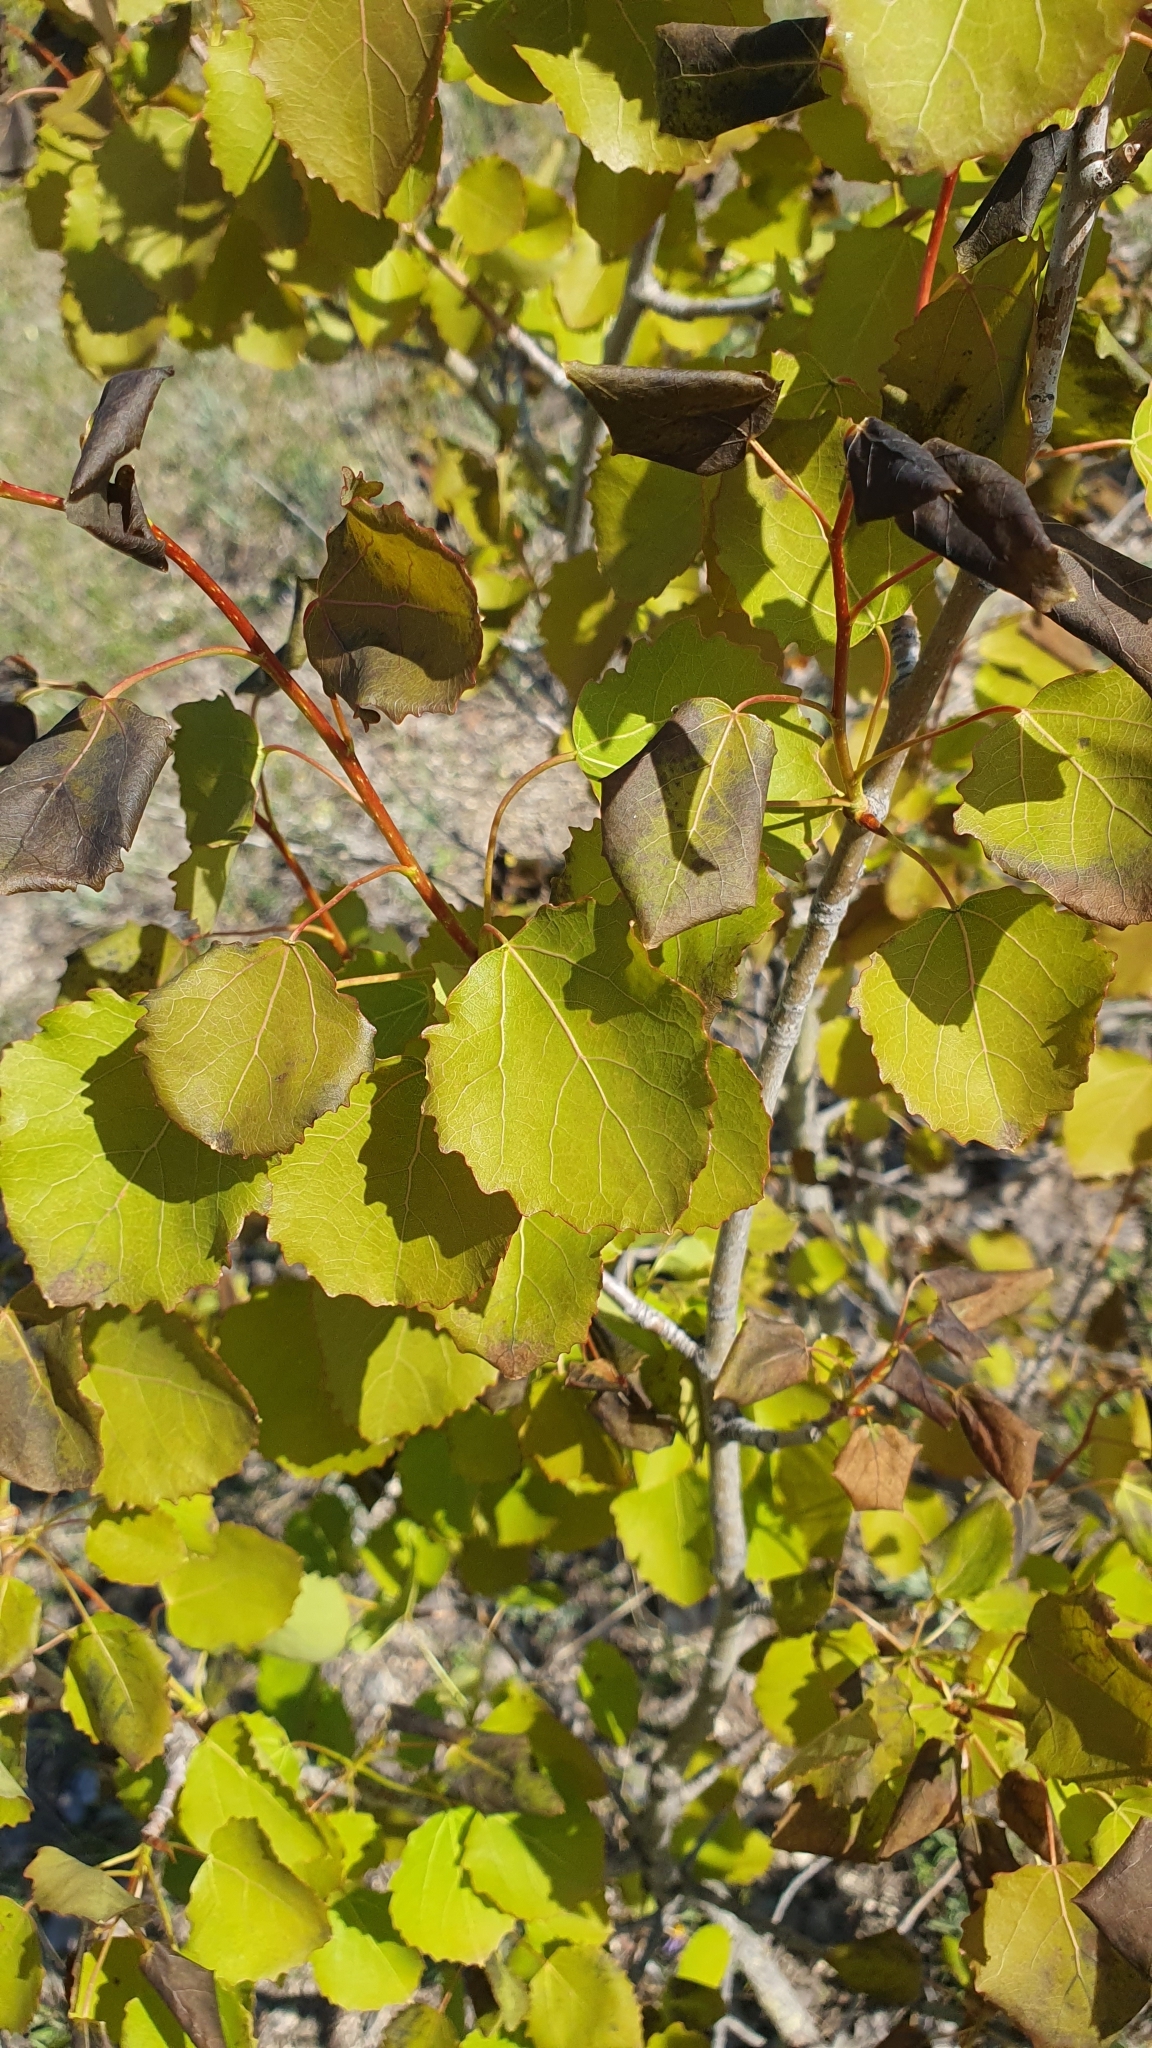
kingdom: Plantae
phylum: Tracheophyta
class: Magnoliopsida
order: Malpighiales
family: Salicaceae
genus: Populus
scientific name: Populus tremula
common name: European aspen
